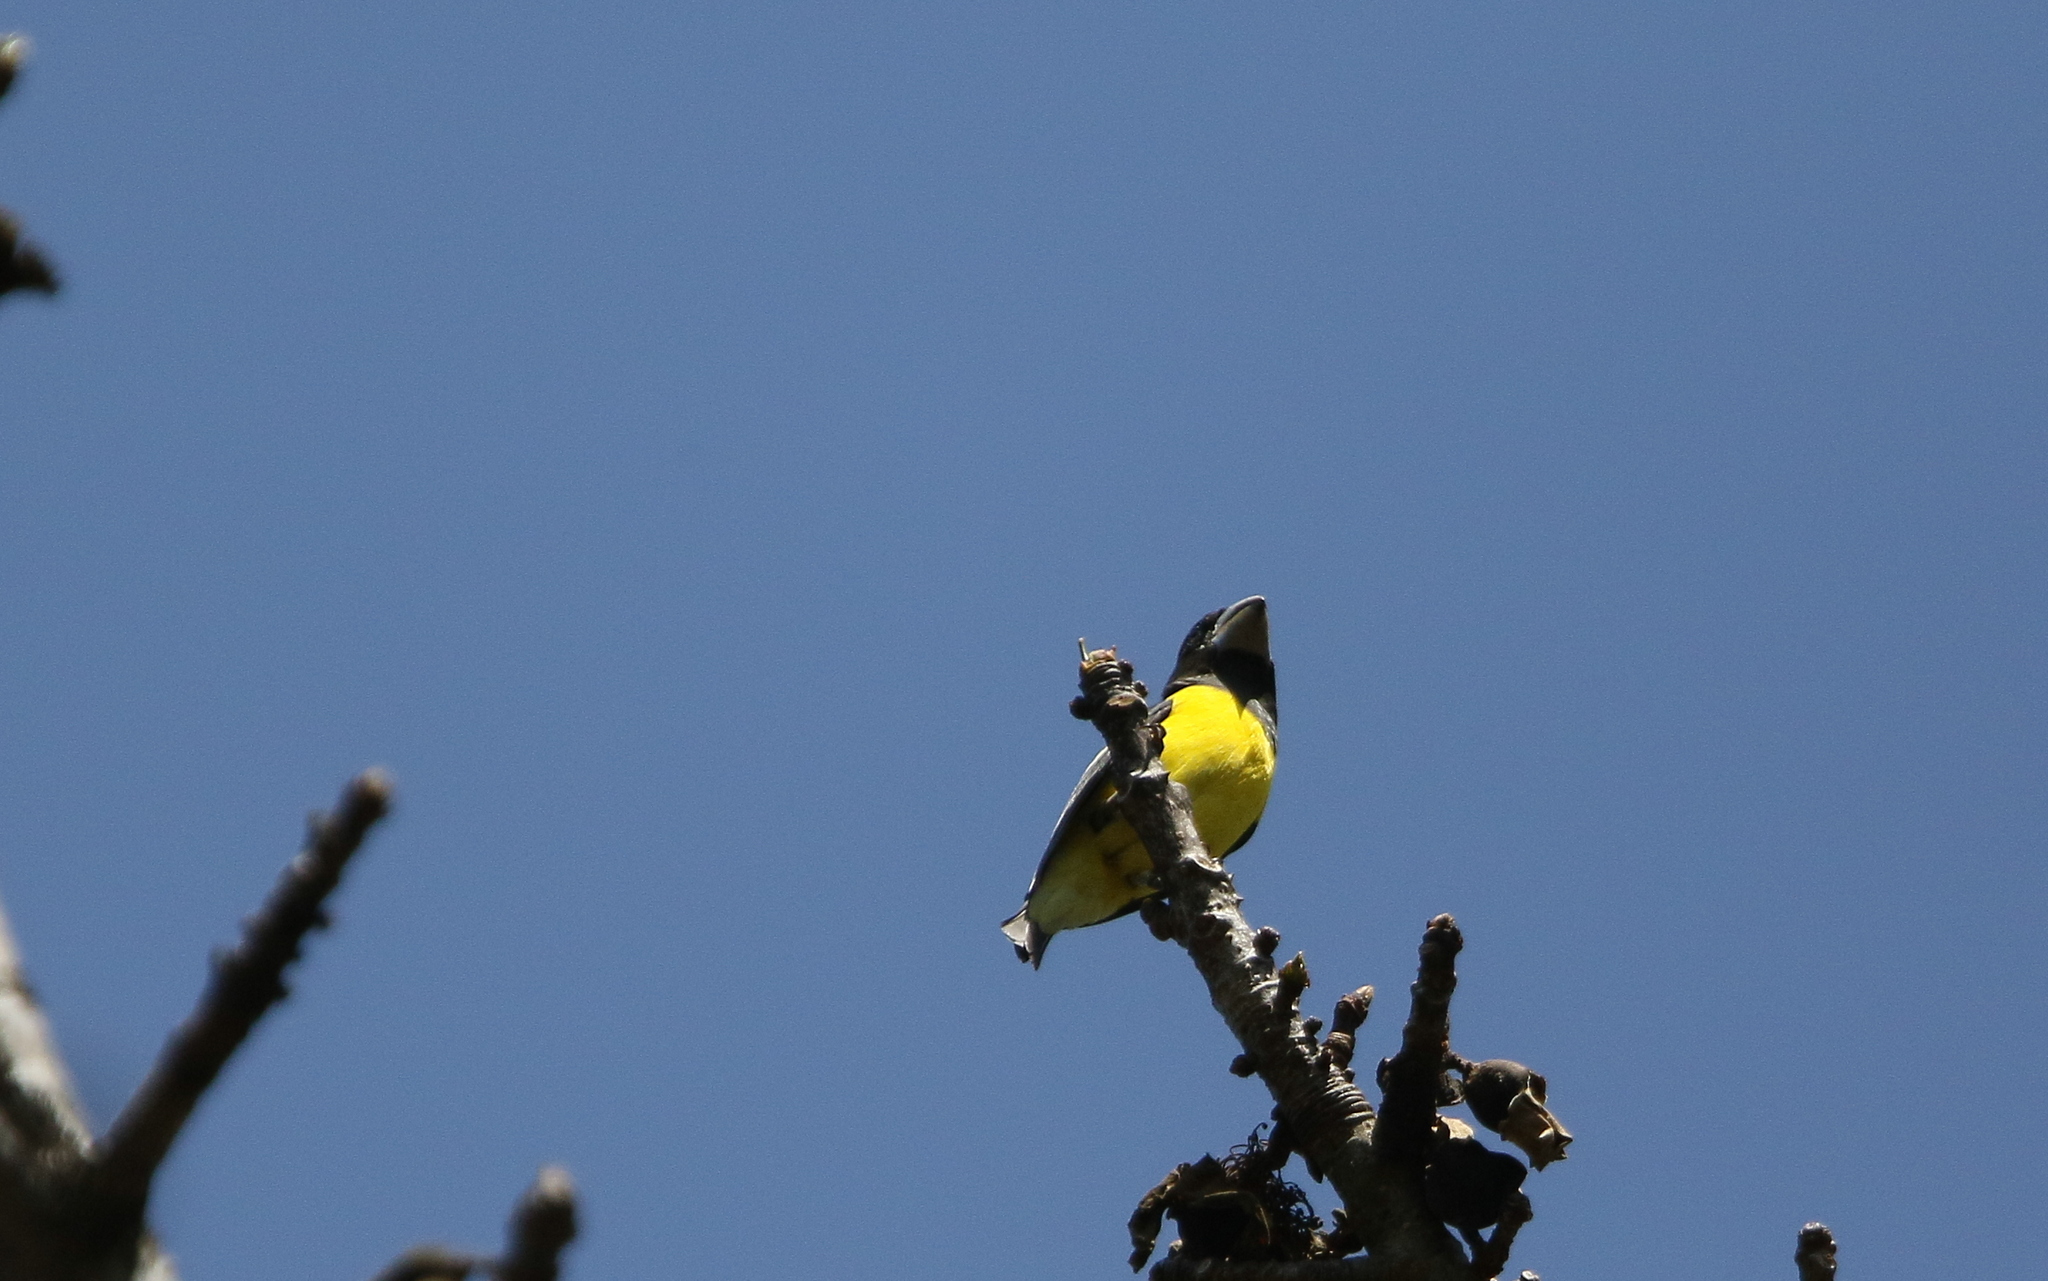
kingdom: Animalia
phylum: Chordata
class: Aves
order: Passeriformes
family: Fringillidae
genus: Mycerobas
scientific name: Mycerobas melanozanthos
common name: Spot-winged grosbeak
